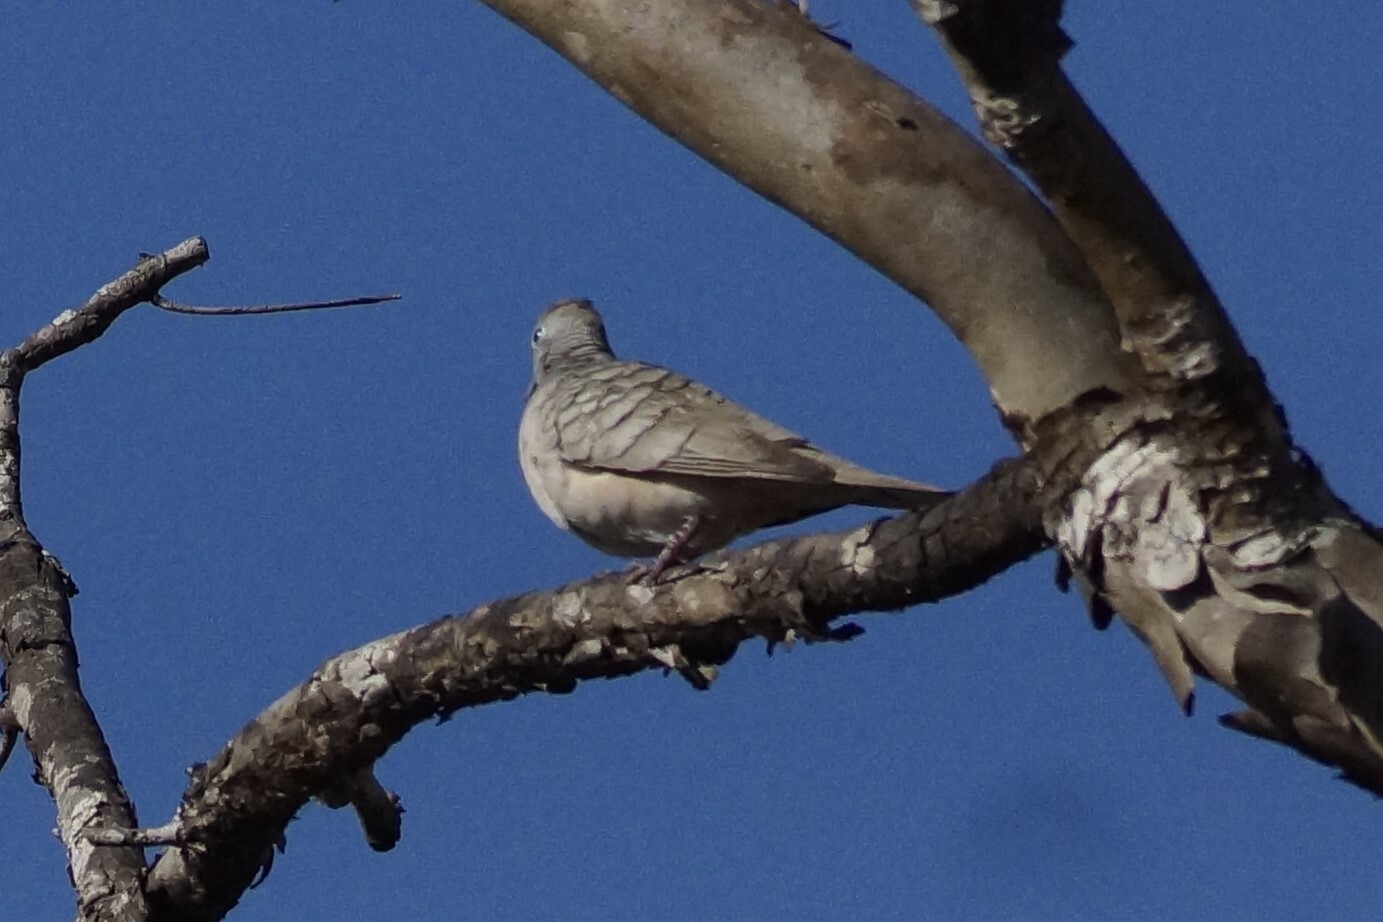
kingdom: Animalia
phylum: Chordata
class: Aves
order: Columbiformes
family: Columbidae
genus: Geopelia
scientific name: Geopelia placida
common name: Peaceful dove
